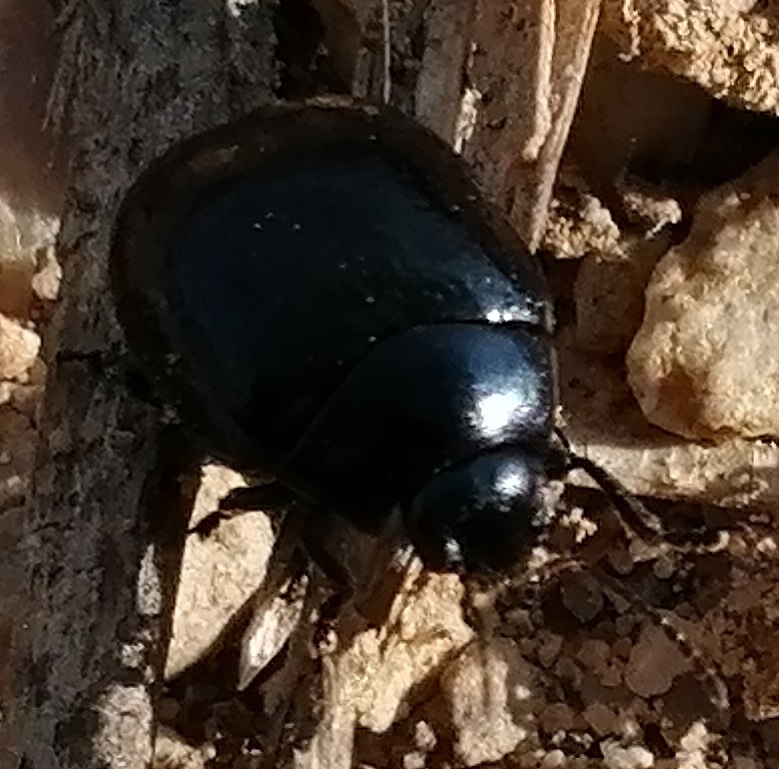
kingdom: Animalia
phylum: Arthropoda
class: Insecta
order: Coleoptera
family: Chrysomelidae
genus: Chrysolina
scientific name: Chrysolina haemoptera
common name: Plantain leaf beetle
